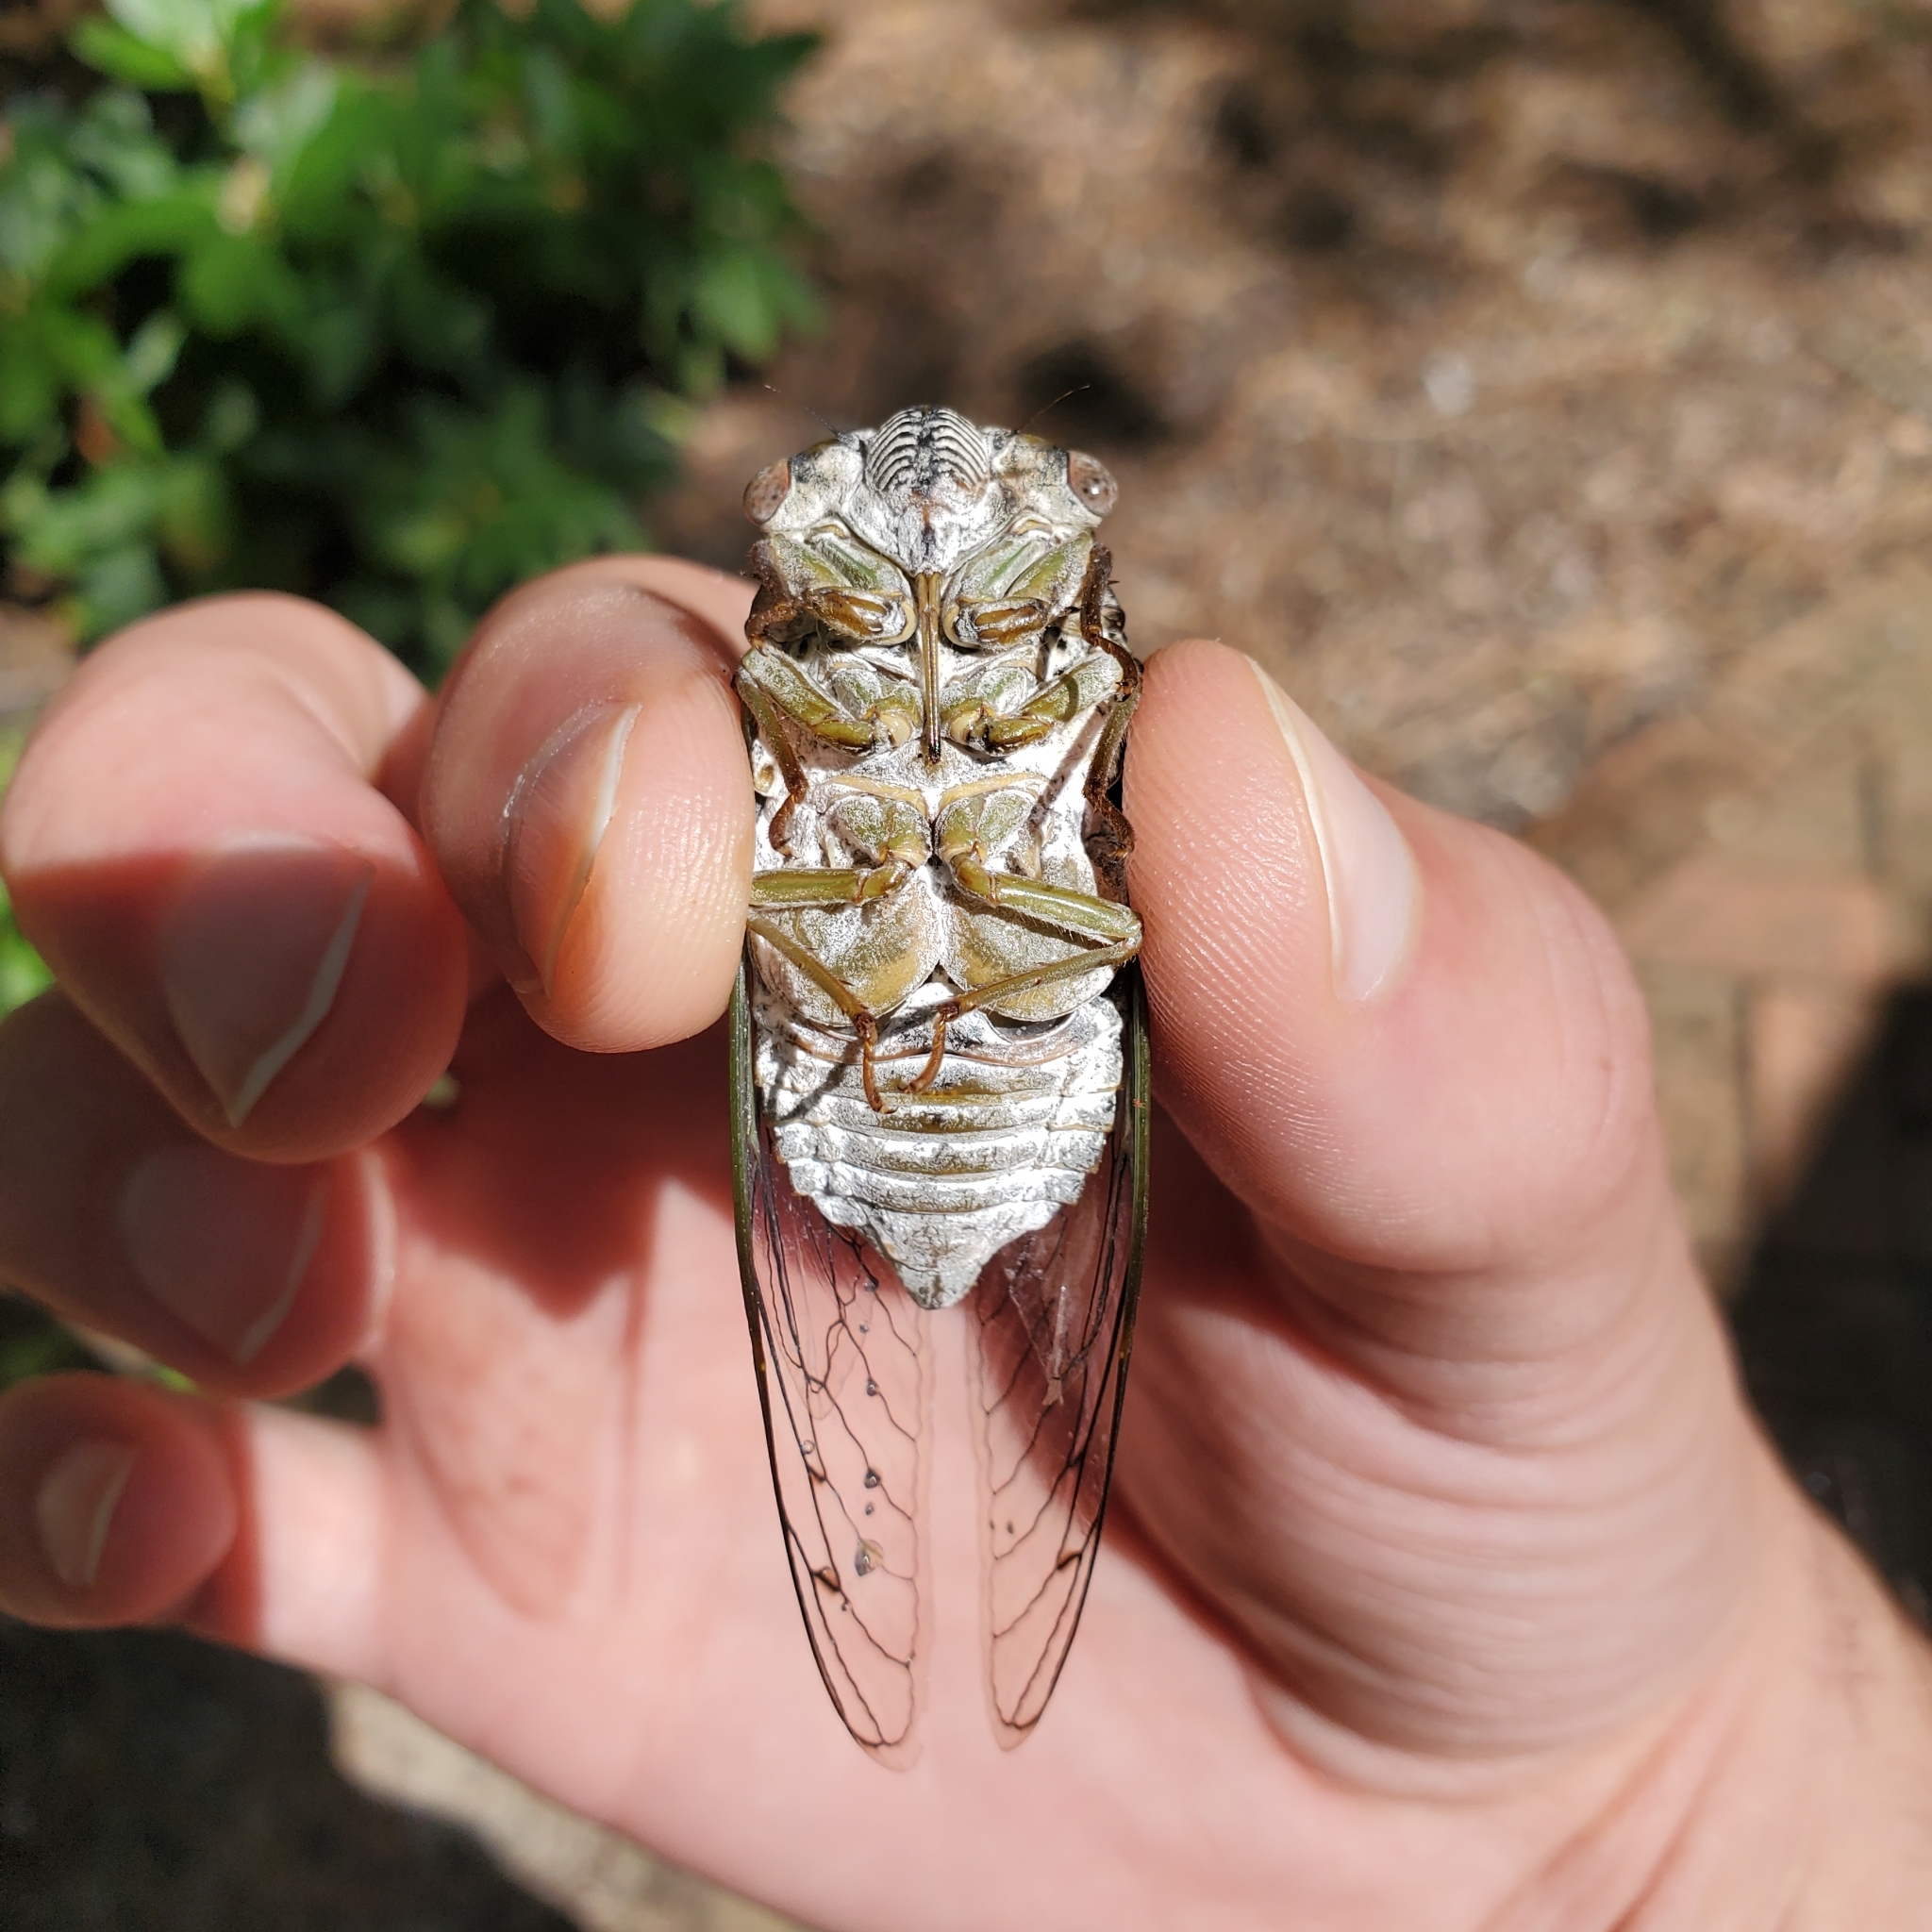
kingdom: Animalia
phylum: Arthropoda
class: Insecta
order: Hemiptera
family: Cicadidae
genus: Diceroprocta
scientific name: Diceroprocta grossa
